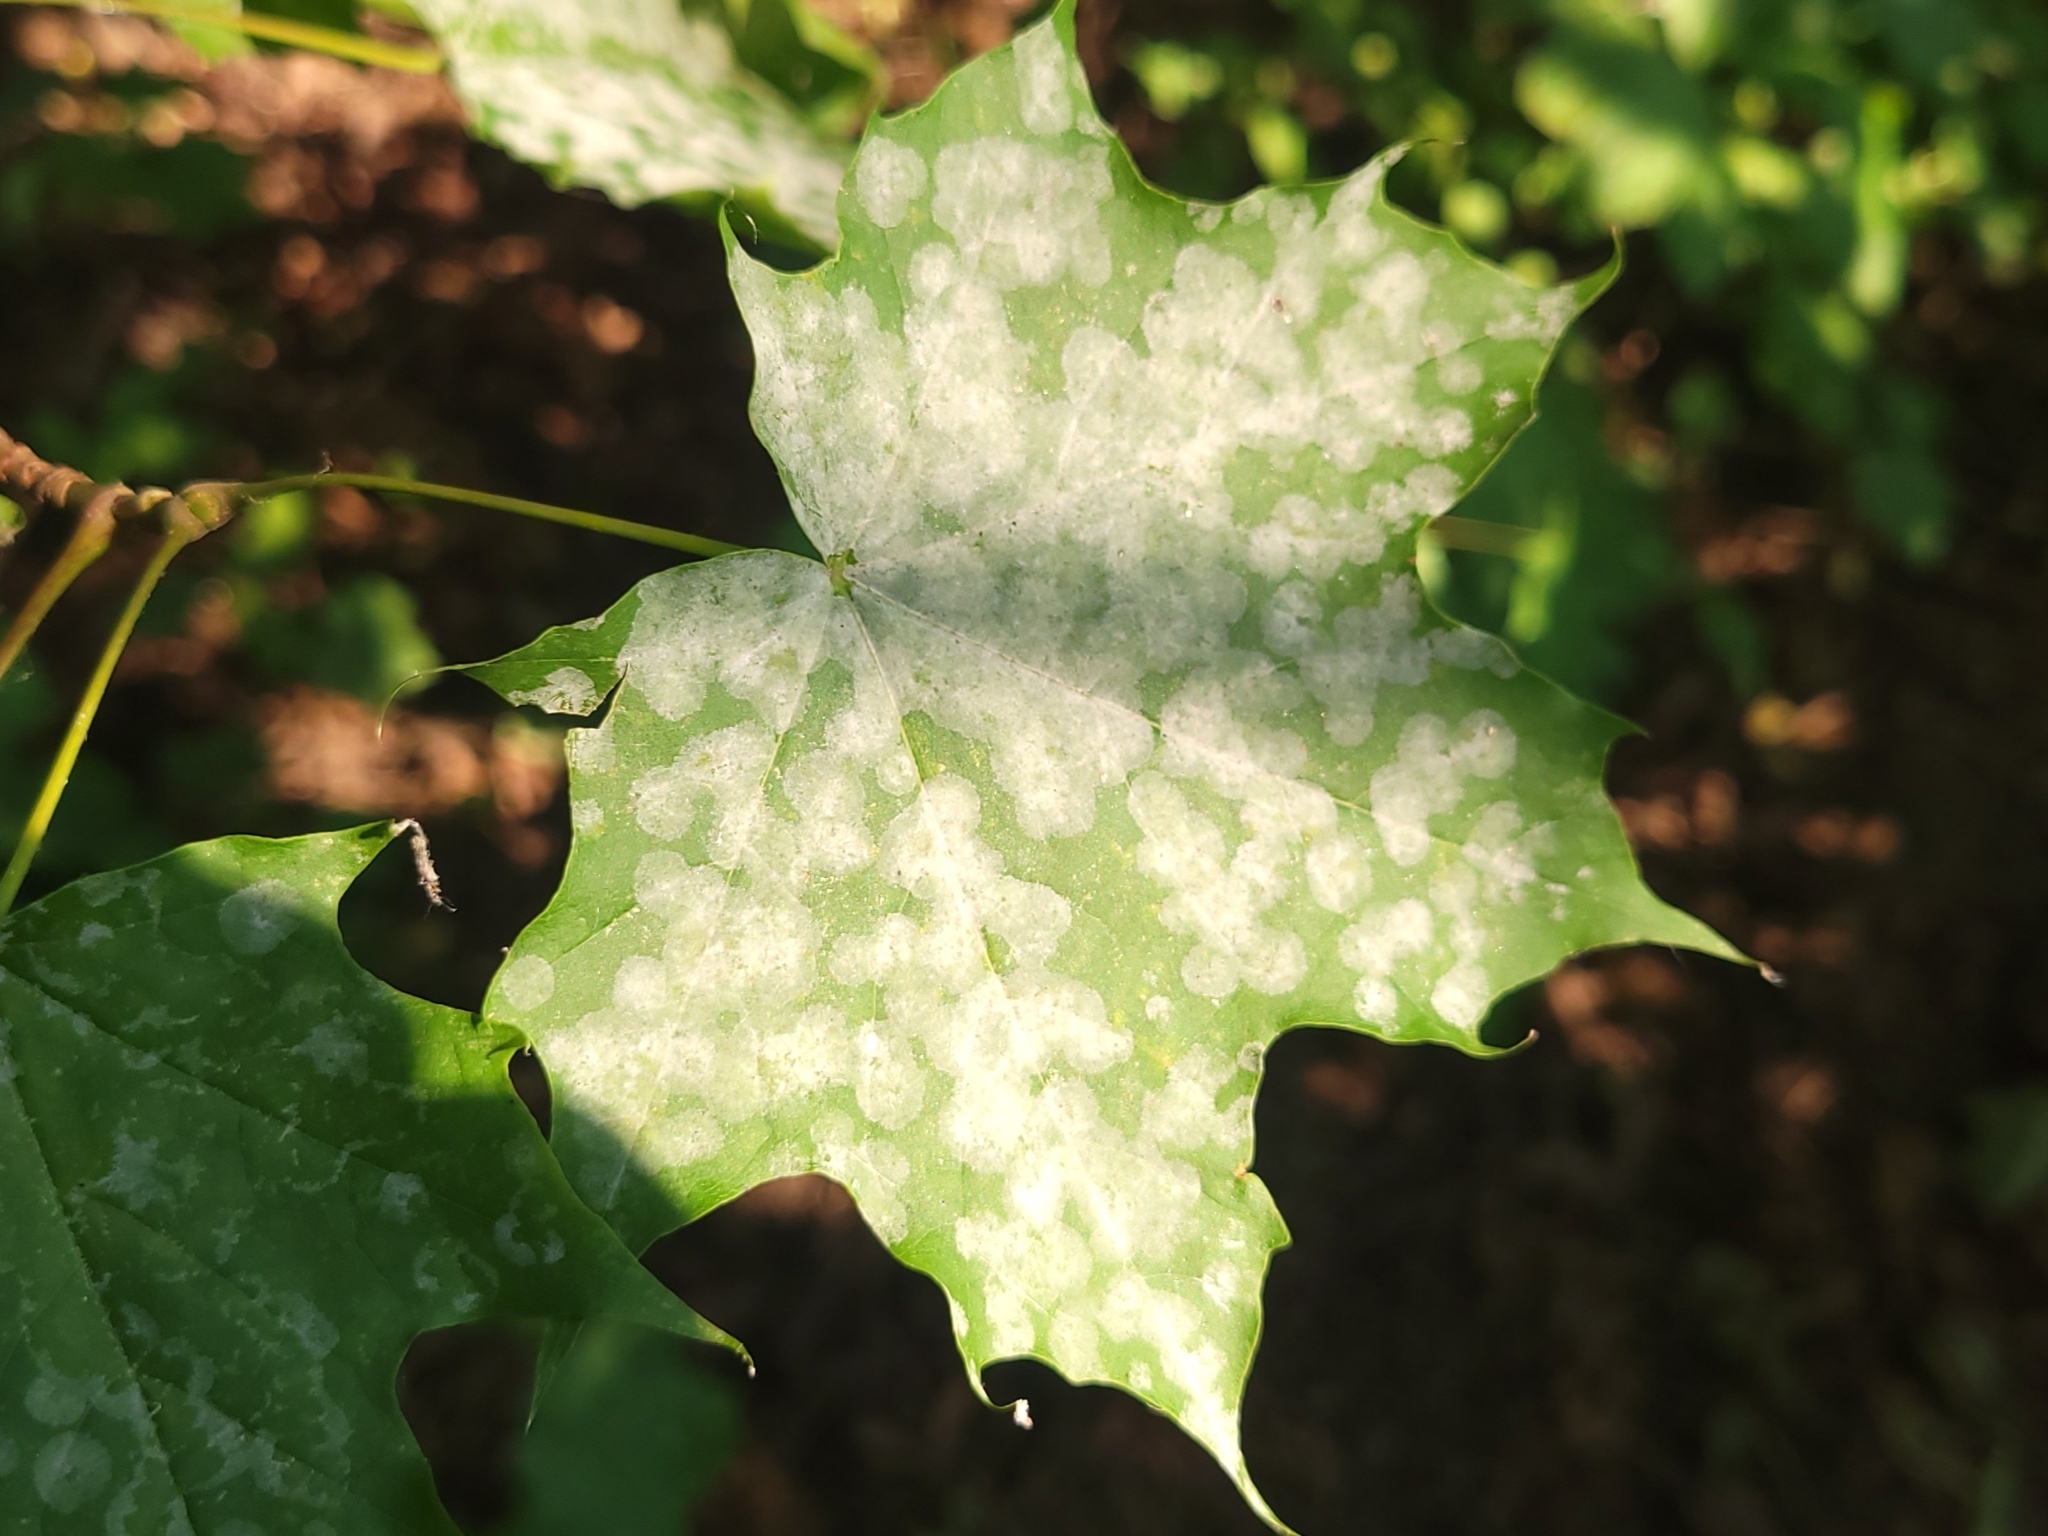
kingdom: Plantae
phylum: Tracheophyta
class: Magnoliopsida
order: Sapindales
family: Sapindaceae
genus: Acer
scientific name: Acer platanoides
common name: Norway maple
